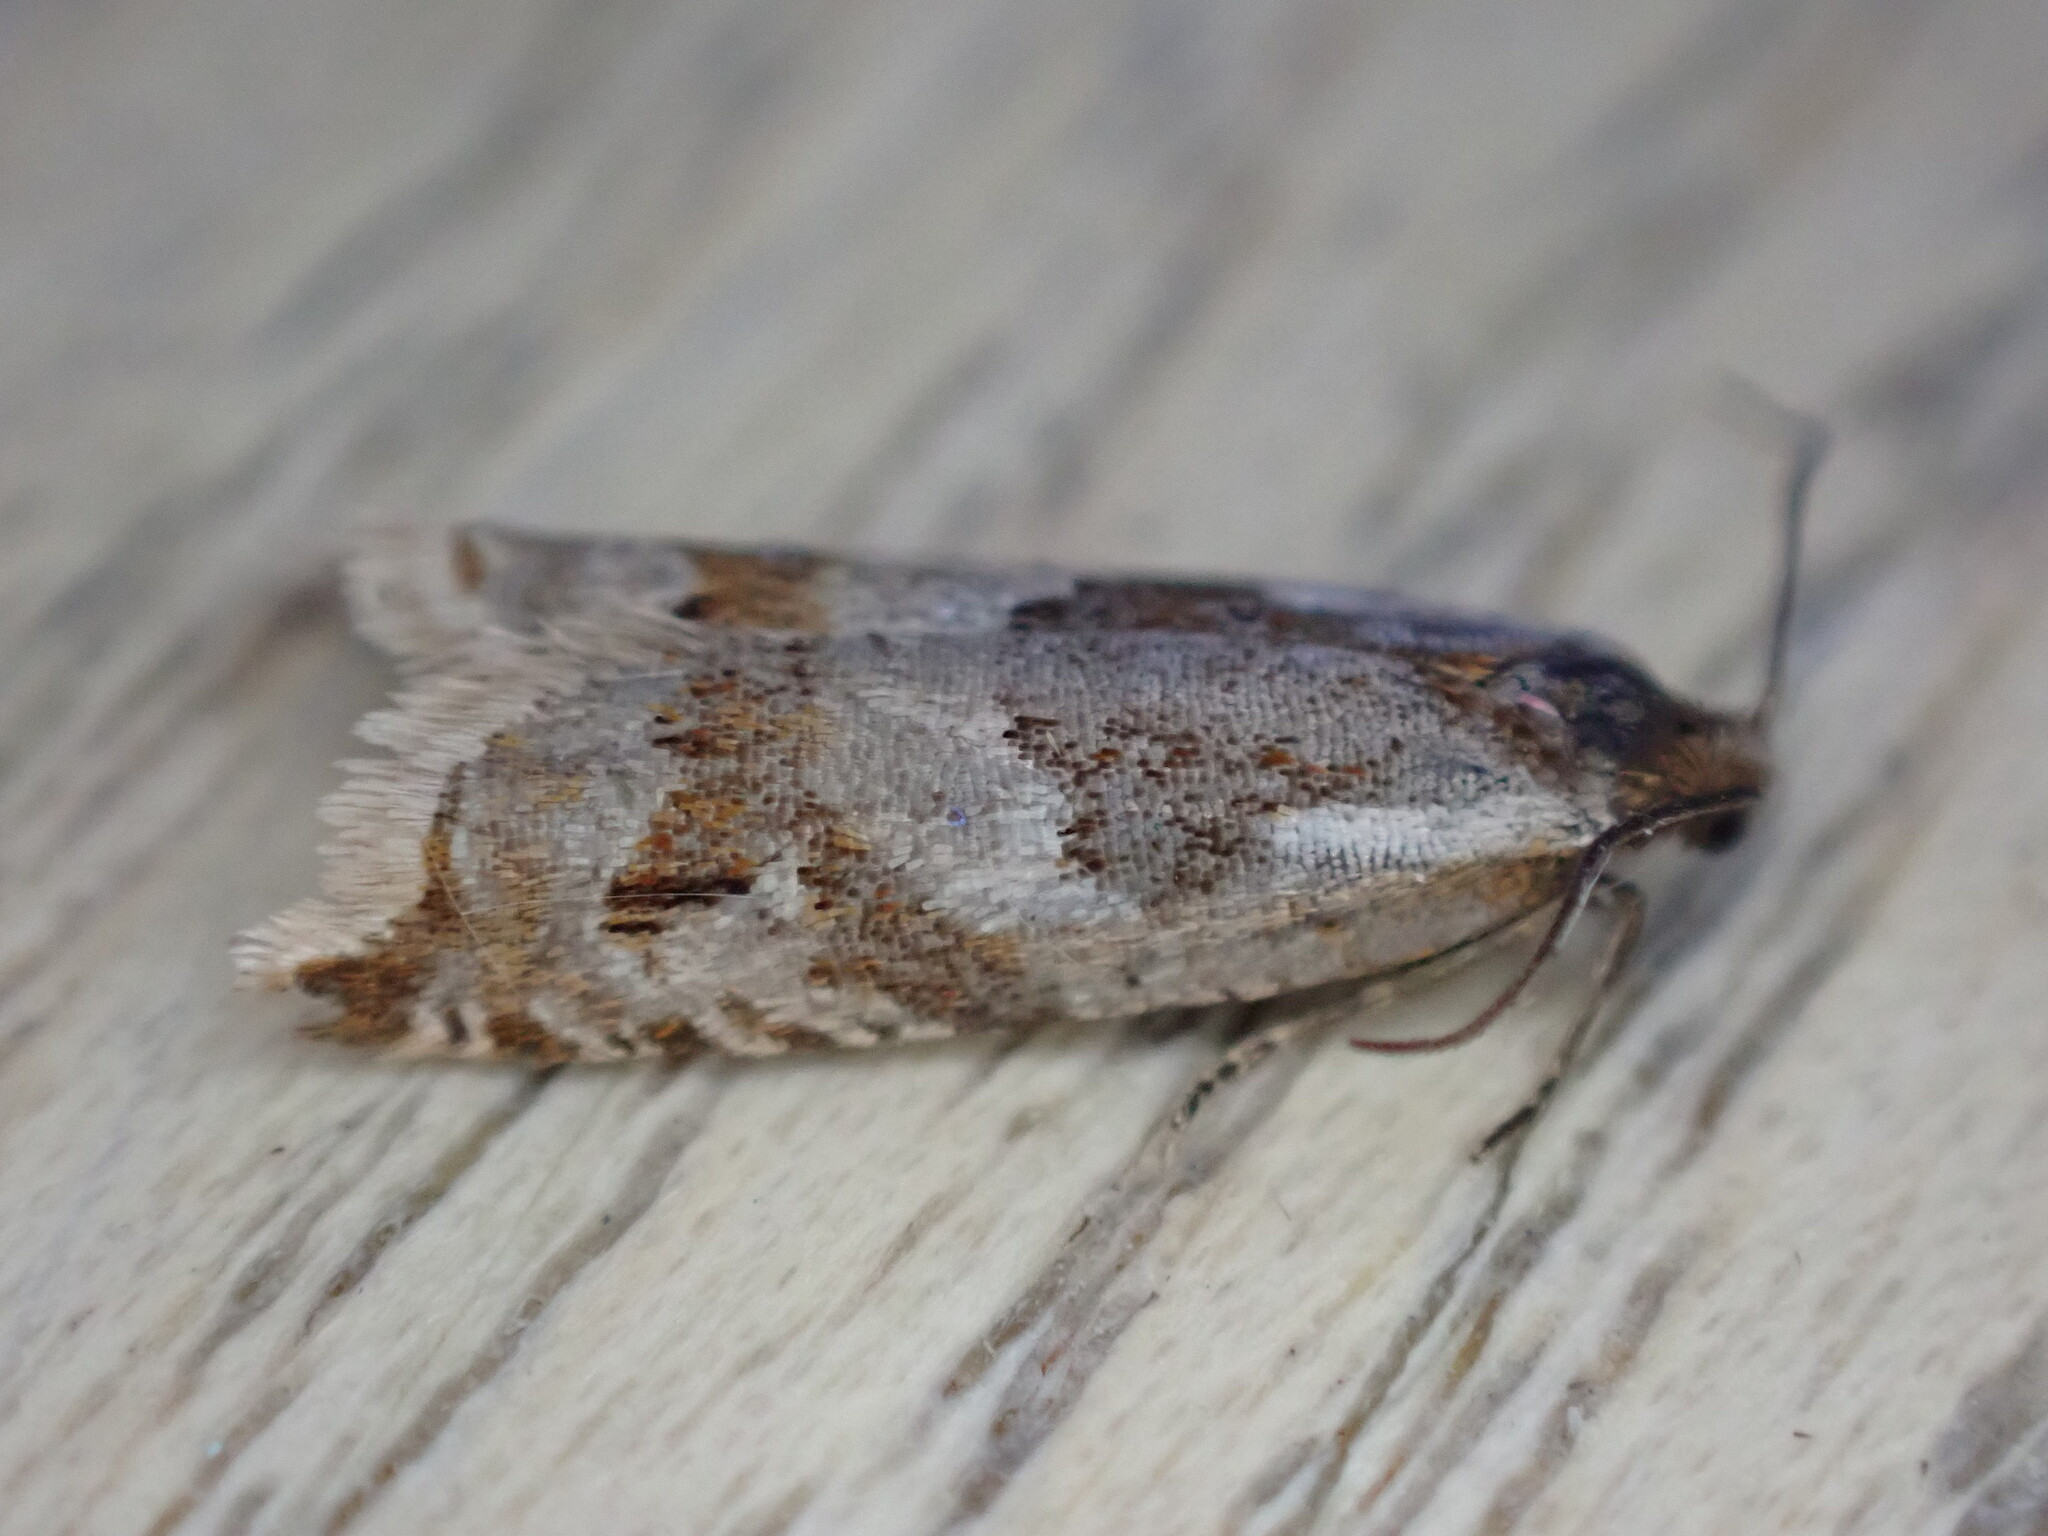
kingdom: Animalia
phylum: Arthropoda
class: Insecta
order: Lepidoptera
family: Tortricidae
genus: Ancylis
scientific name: Ancylis achatana
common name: Triangle-marked roller
